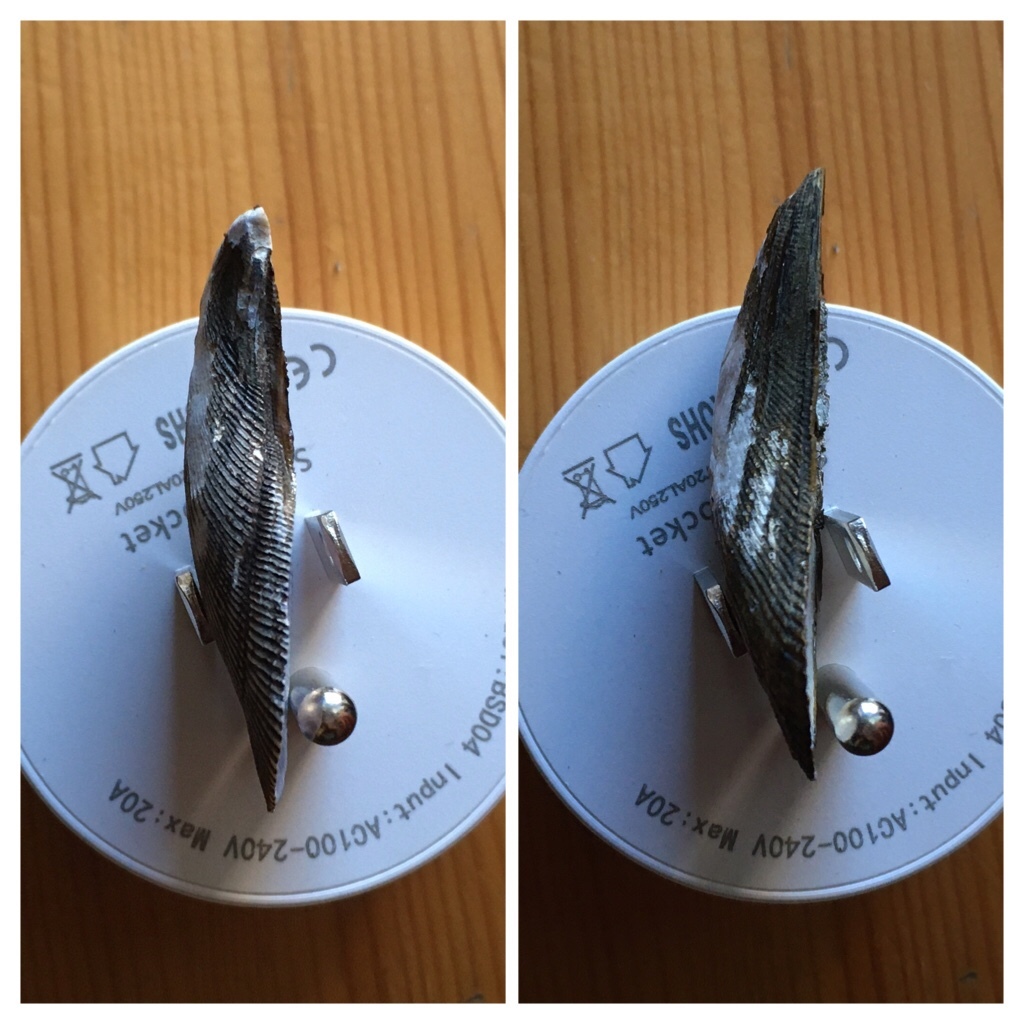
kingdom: Animalia
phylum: Mollusca
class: Bivalvia
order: Mytilida
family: Mytilidae
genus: Ischadium
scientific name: Ischadium recurvum
